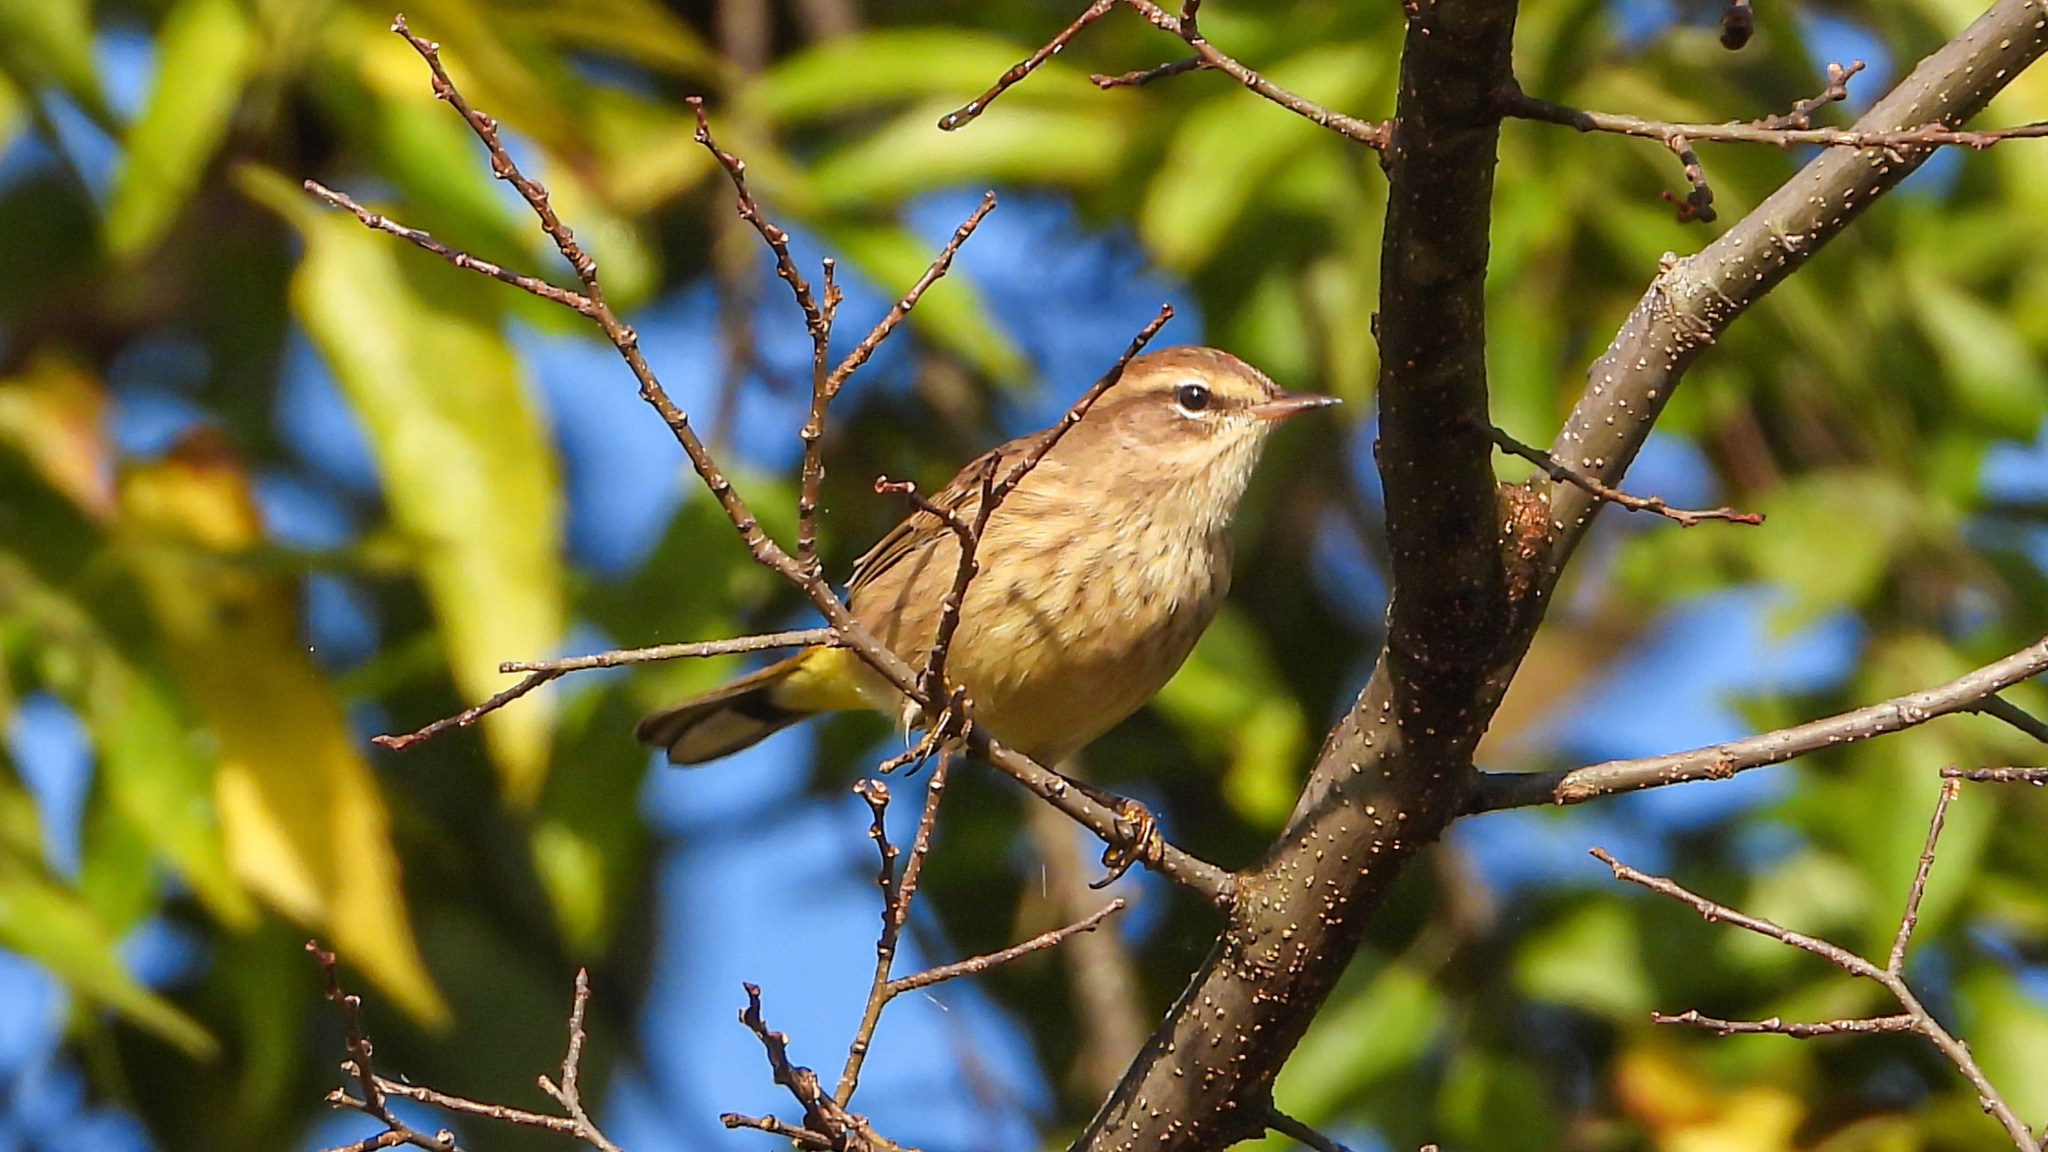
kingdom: Animalia
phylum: Chordata
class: Aves
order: Passeriformes
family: Parulidae
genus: Setophaga
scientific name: Setophaga palmarum
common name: Palm warbler
